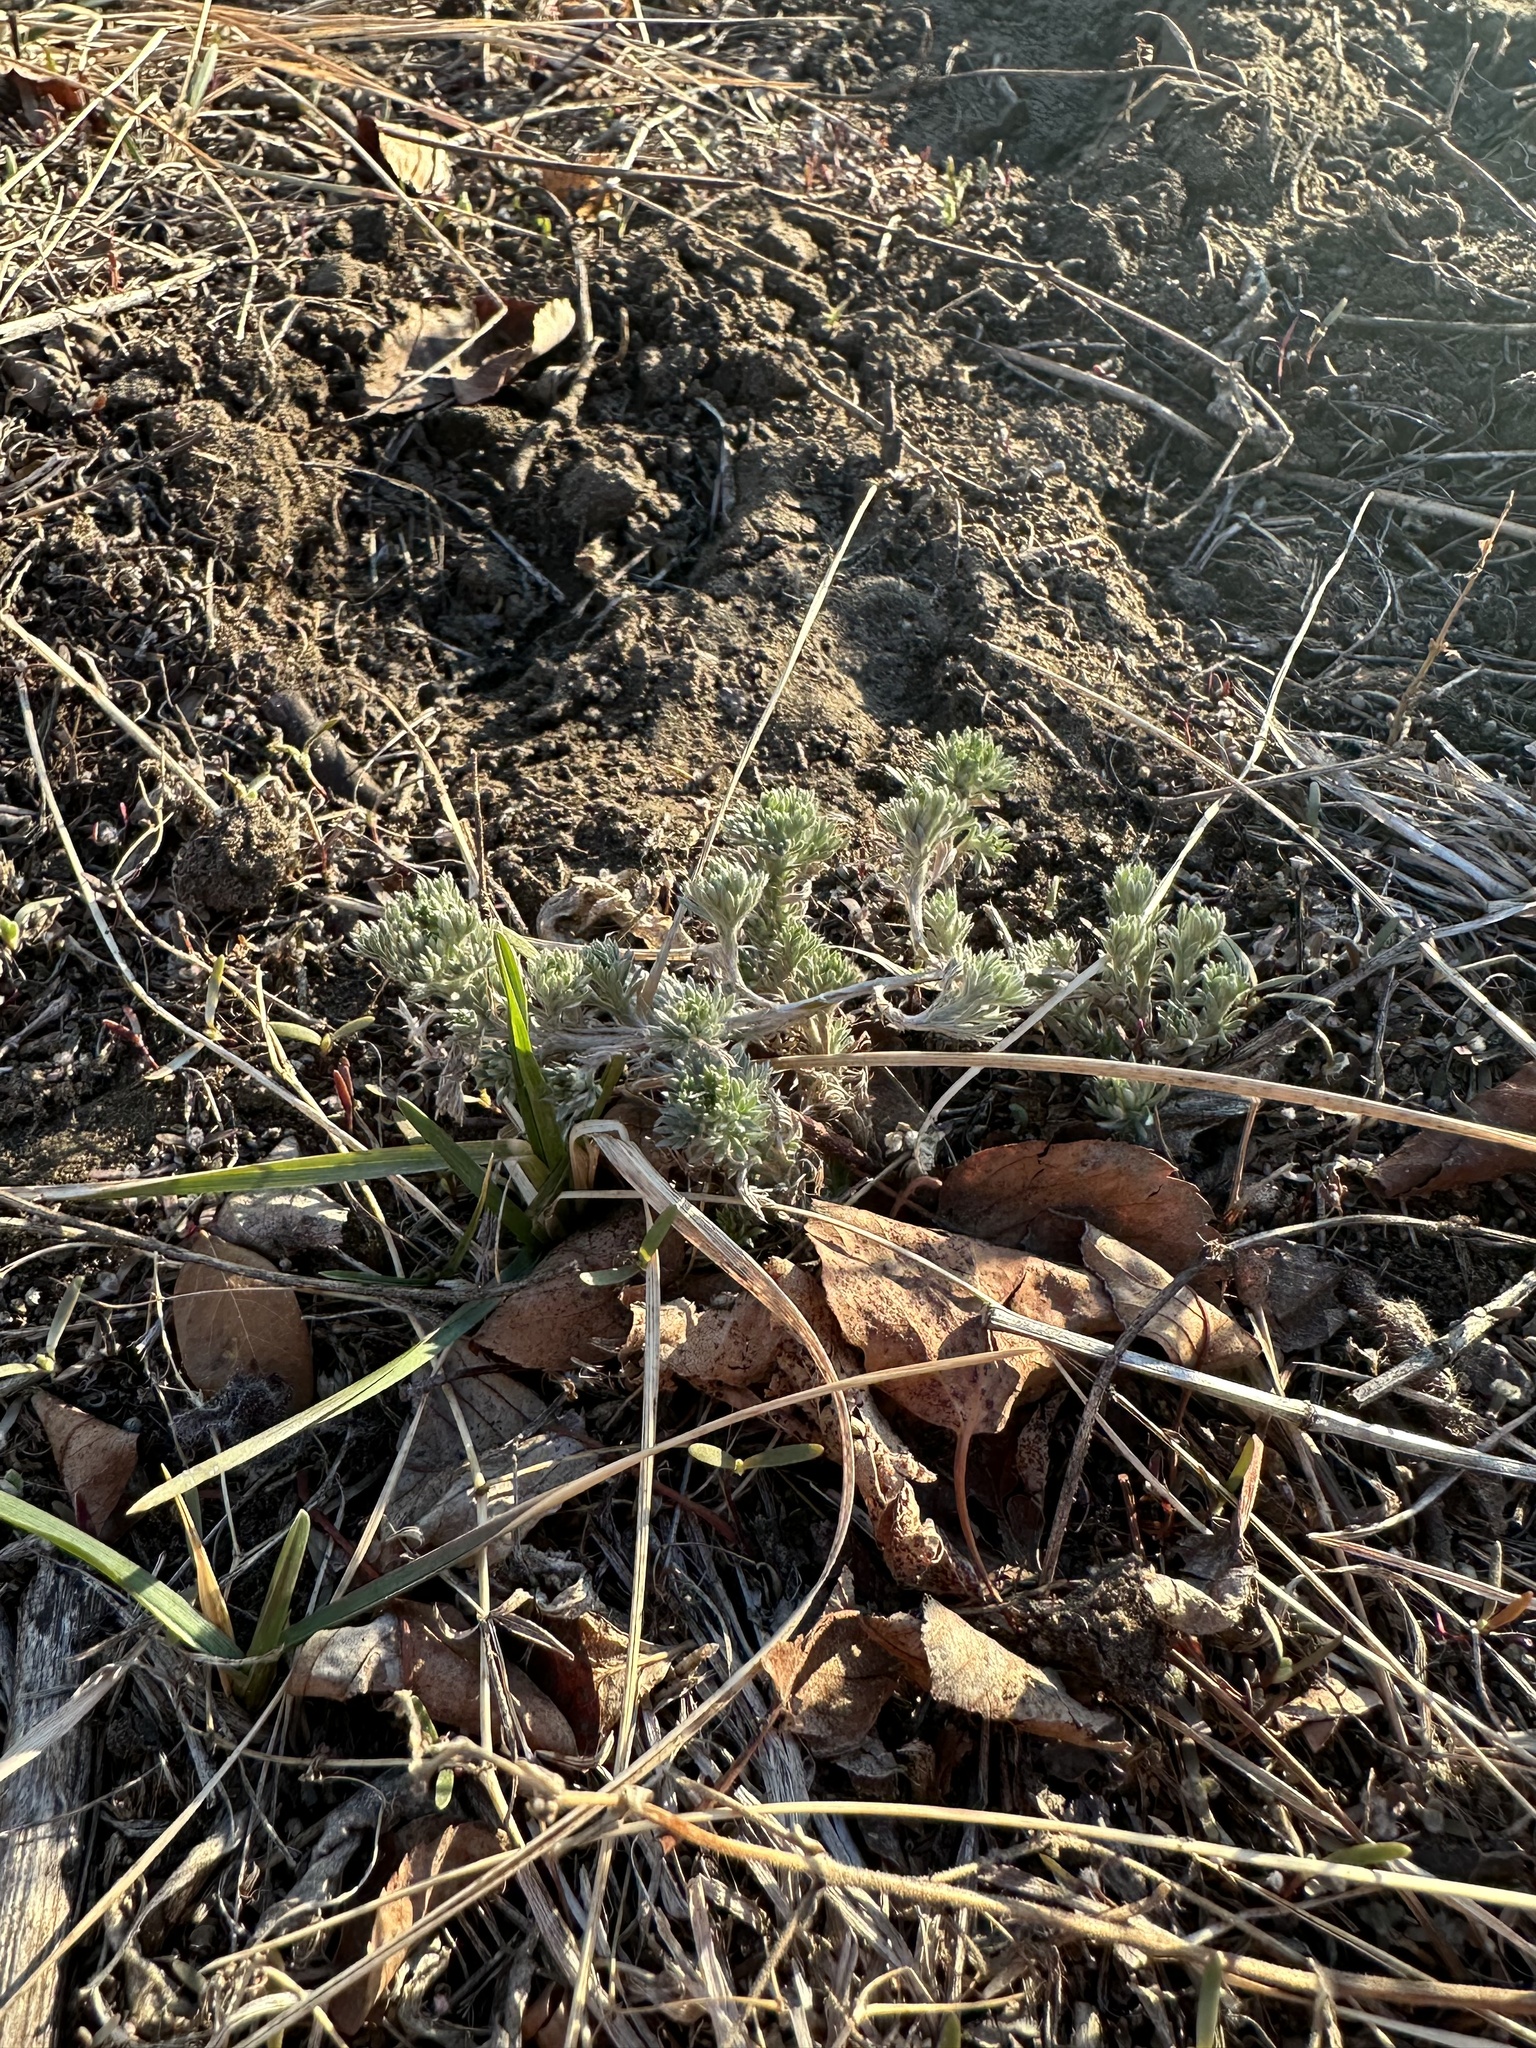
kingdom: Plantae
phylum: Tracheophyta
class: Magnoliopsida
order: Asterales
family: Asteraceae
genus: Artemisia
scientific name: Artemisia frigida
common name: Prairie sagewort
